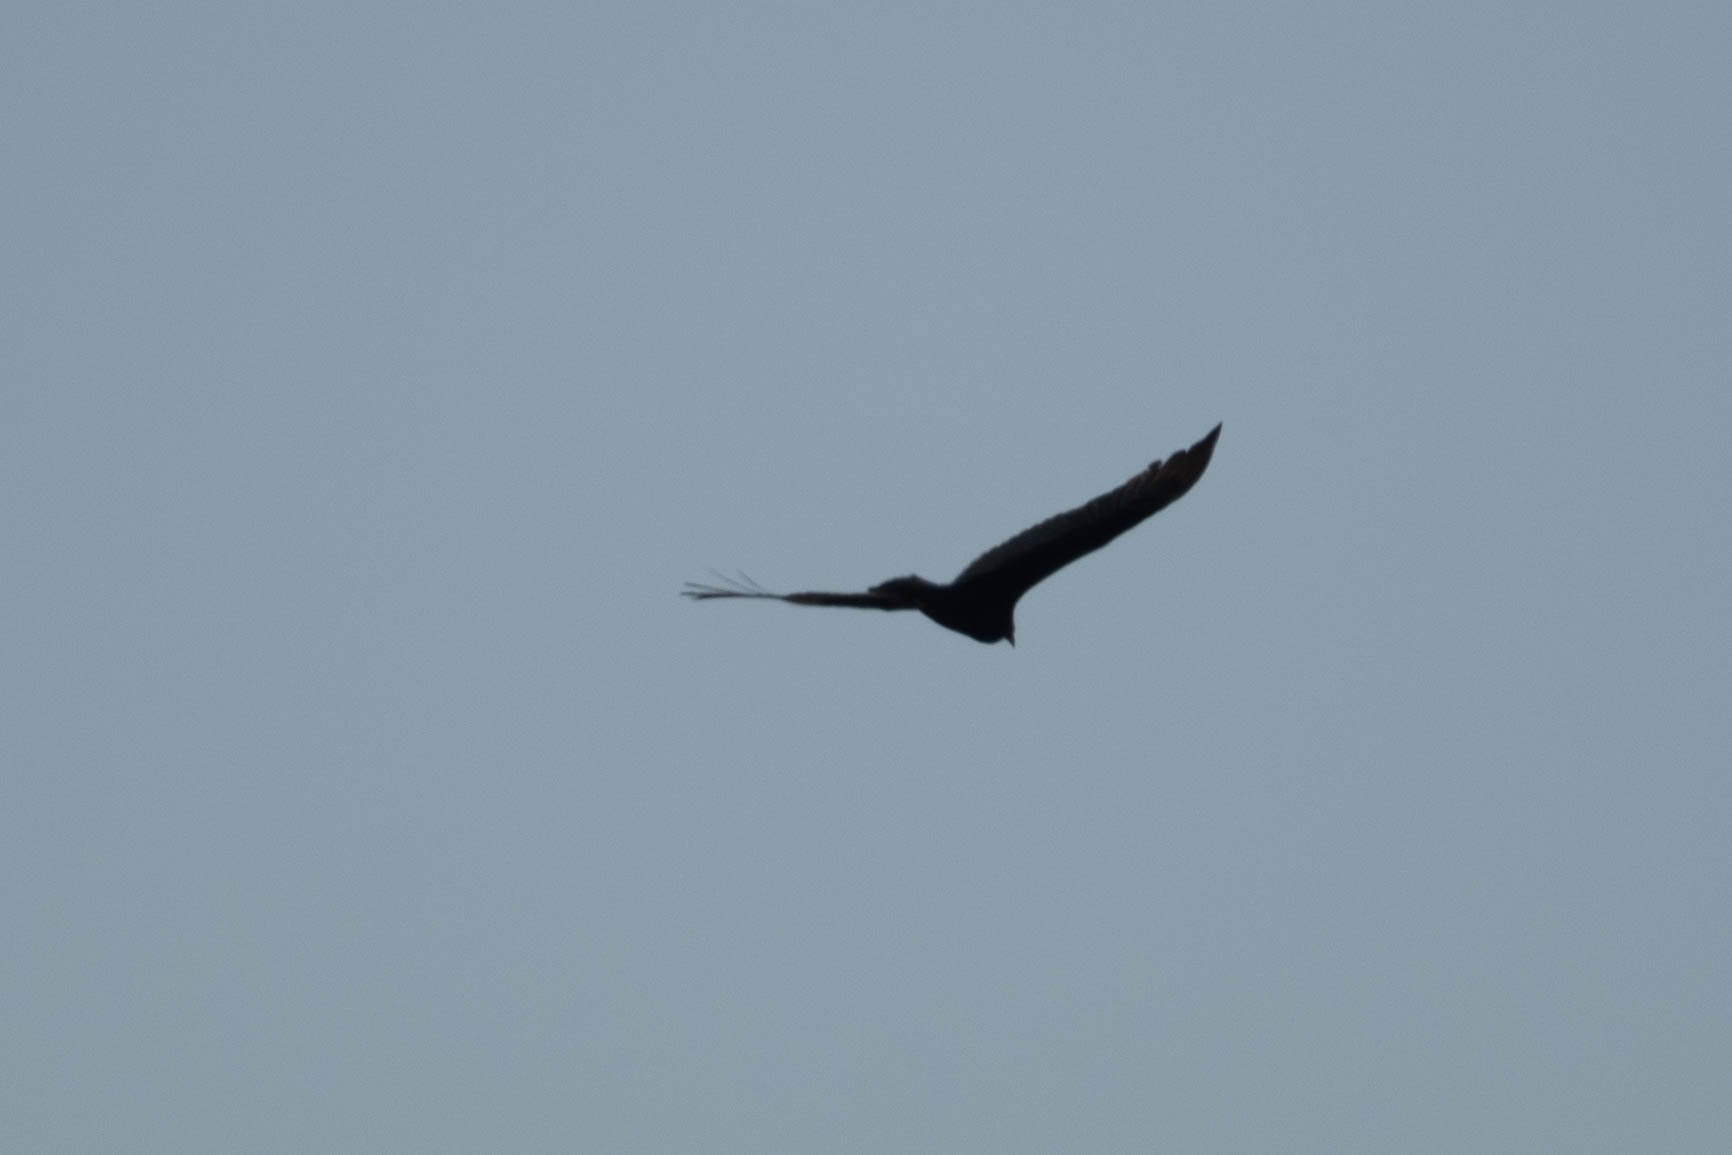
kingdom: Animalia
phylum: Chordata
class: Aves
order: Accipitriformes
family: Cathartidae
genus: Cathartes
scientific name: Cathartes aura
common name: Turkey vulture
